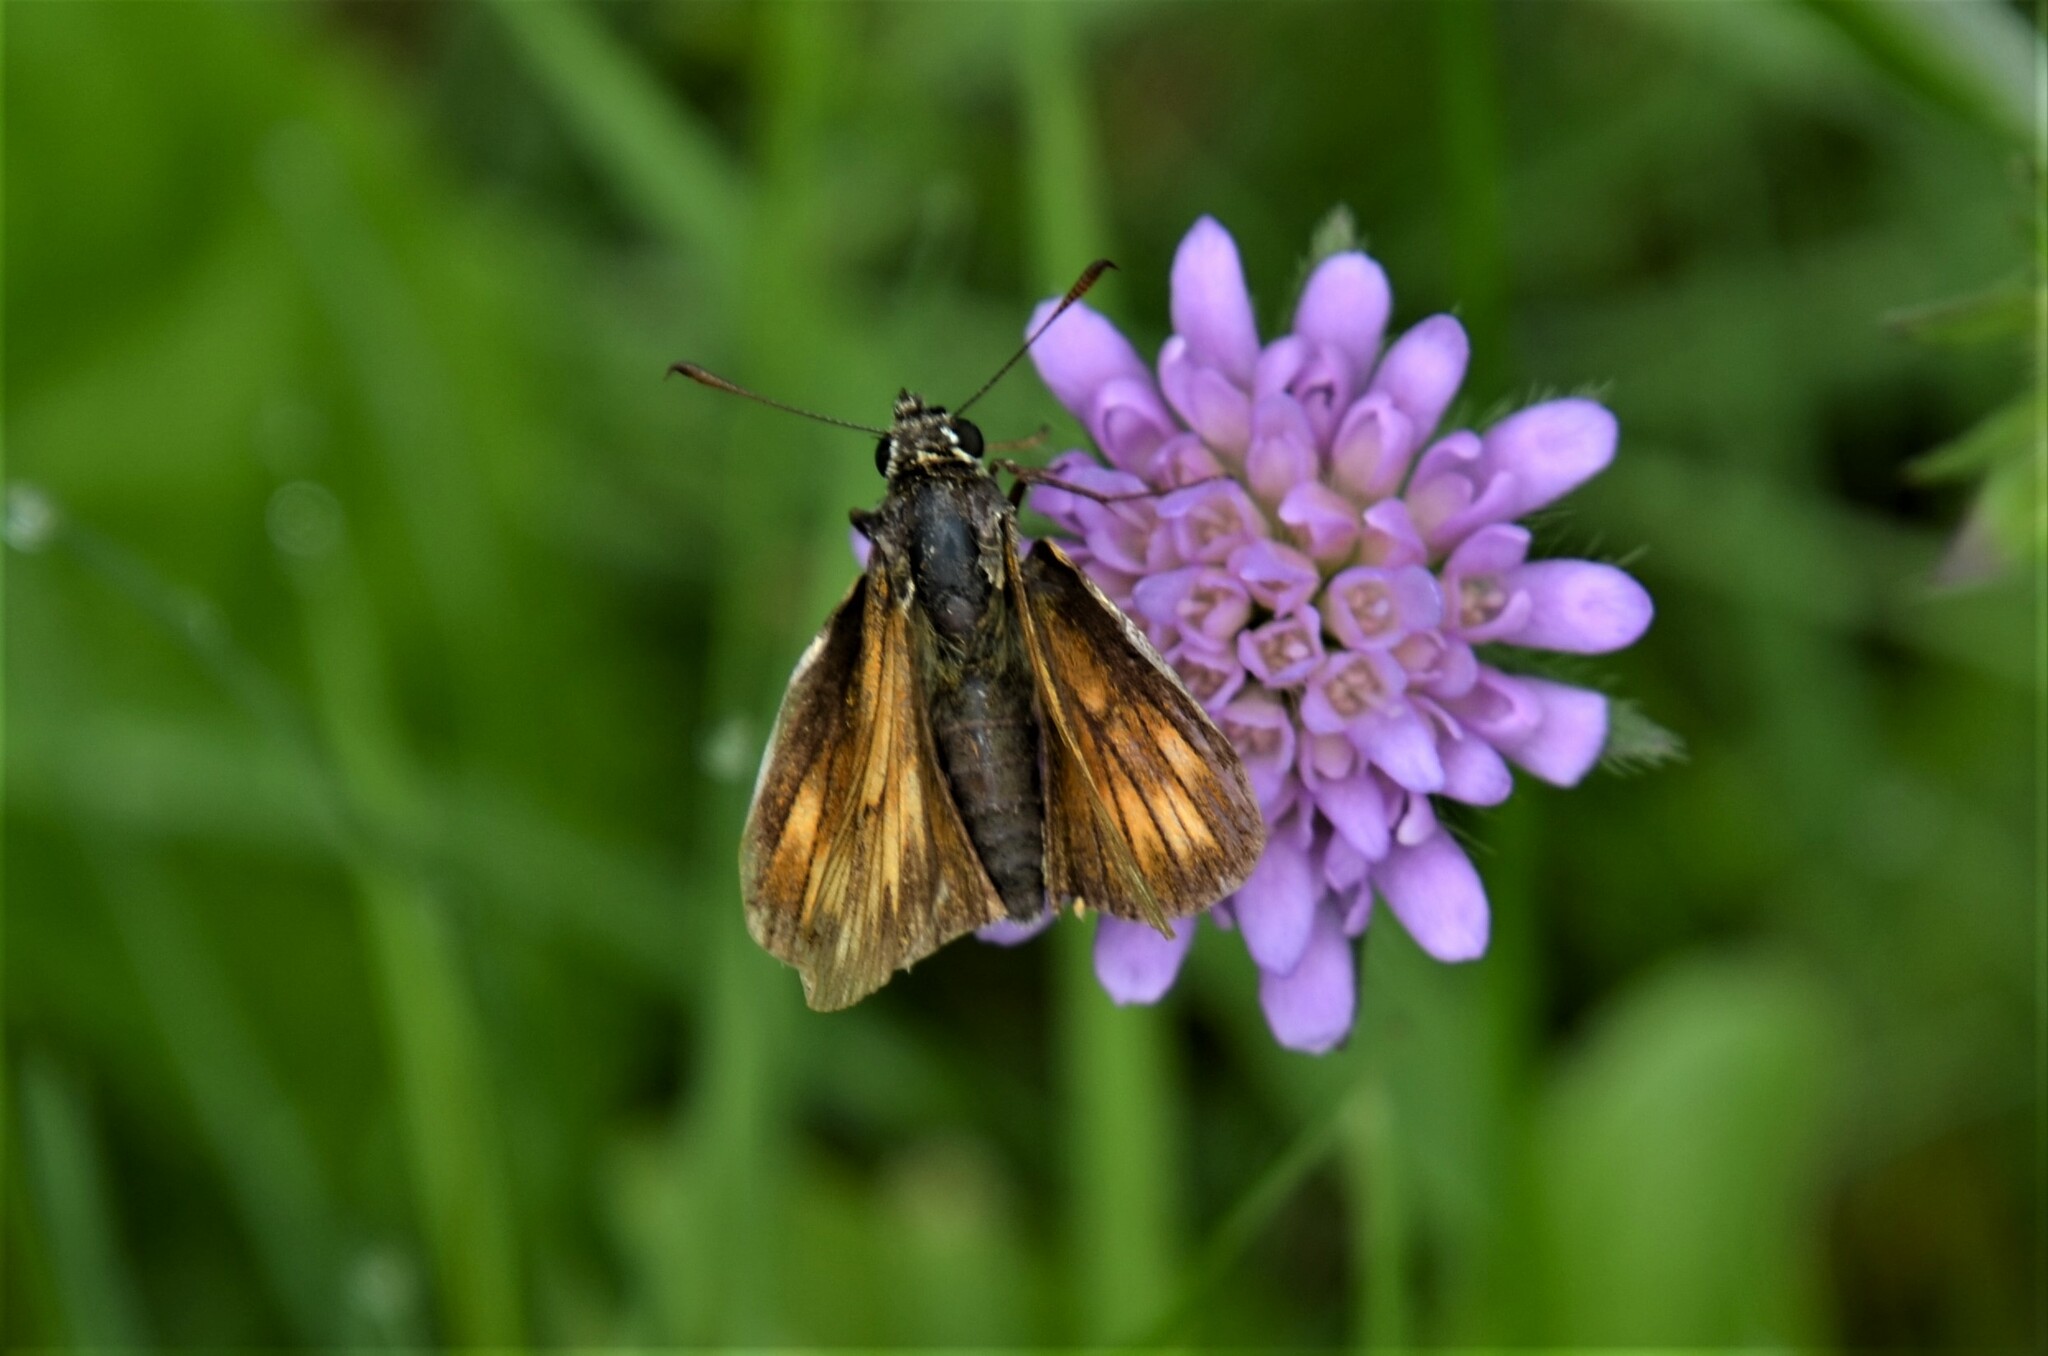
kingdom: Animalia
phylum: Arthropoda
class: Insecta
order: Lepidoptera
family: Hesperiidae
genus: Ochlodes
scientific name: Ochlodes venata
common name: Large skipper
